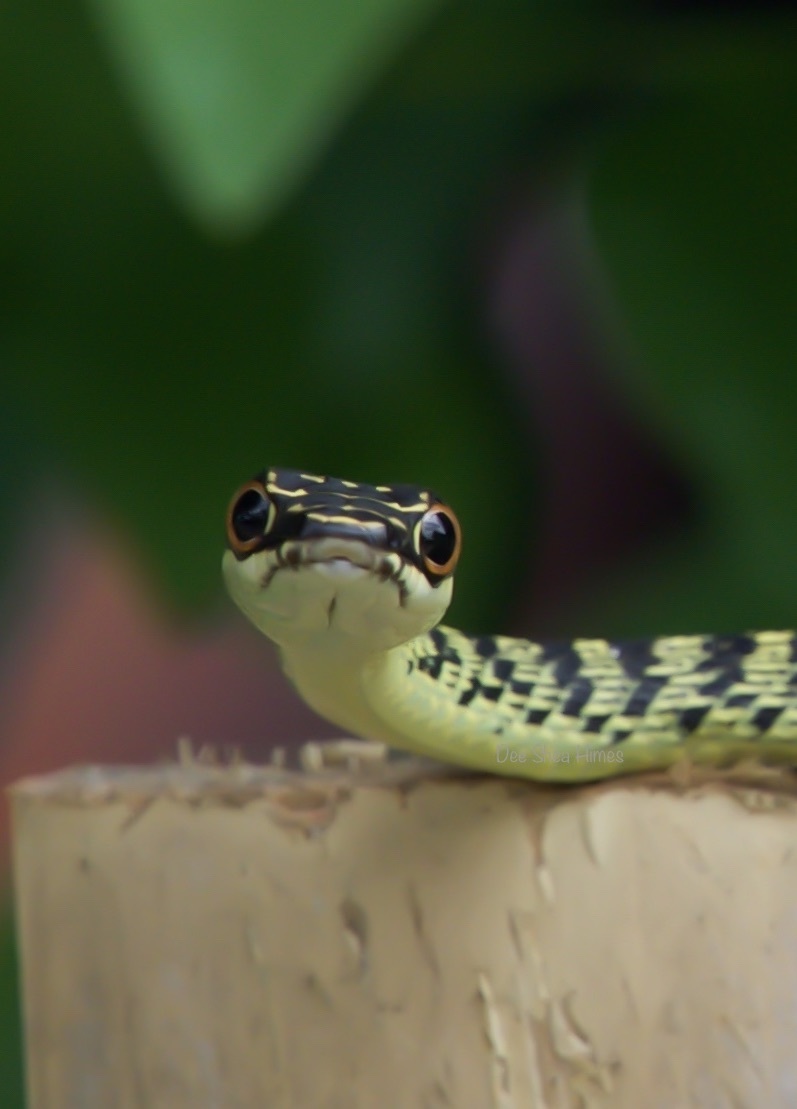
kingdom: Animalia
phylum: Chordata
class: Squamata
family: Colubridae
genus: Chrysopelea
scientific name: Chrysopelea ornata
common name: Golden flying snake
